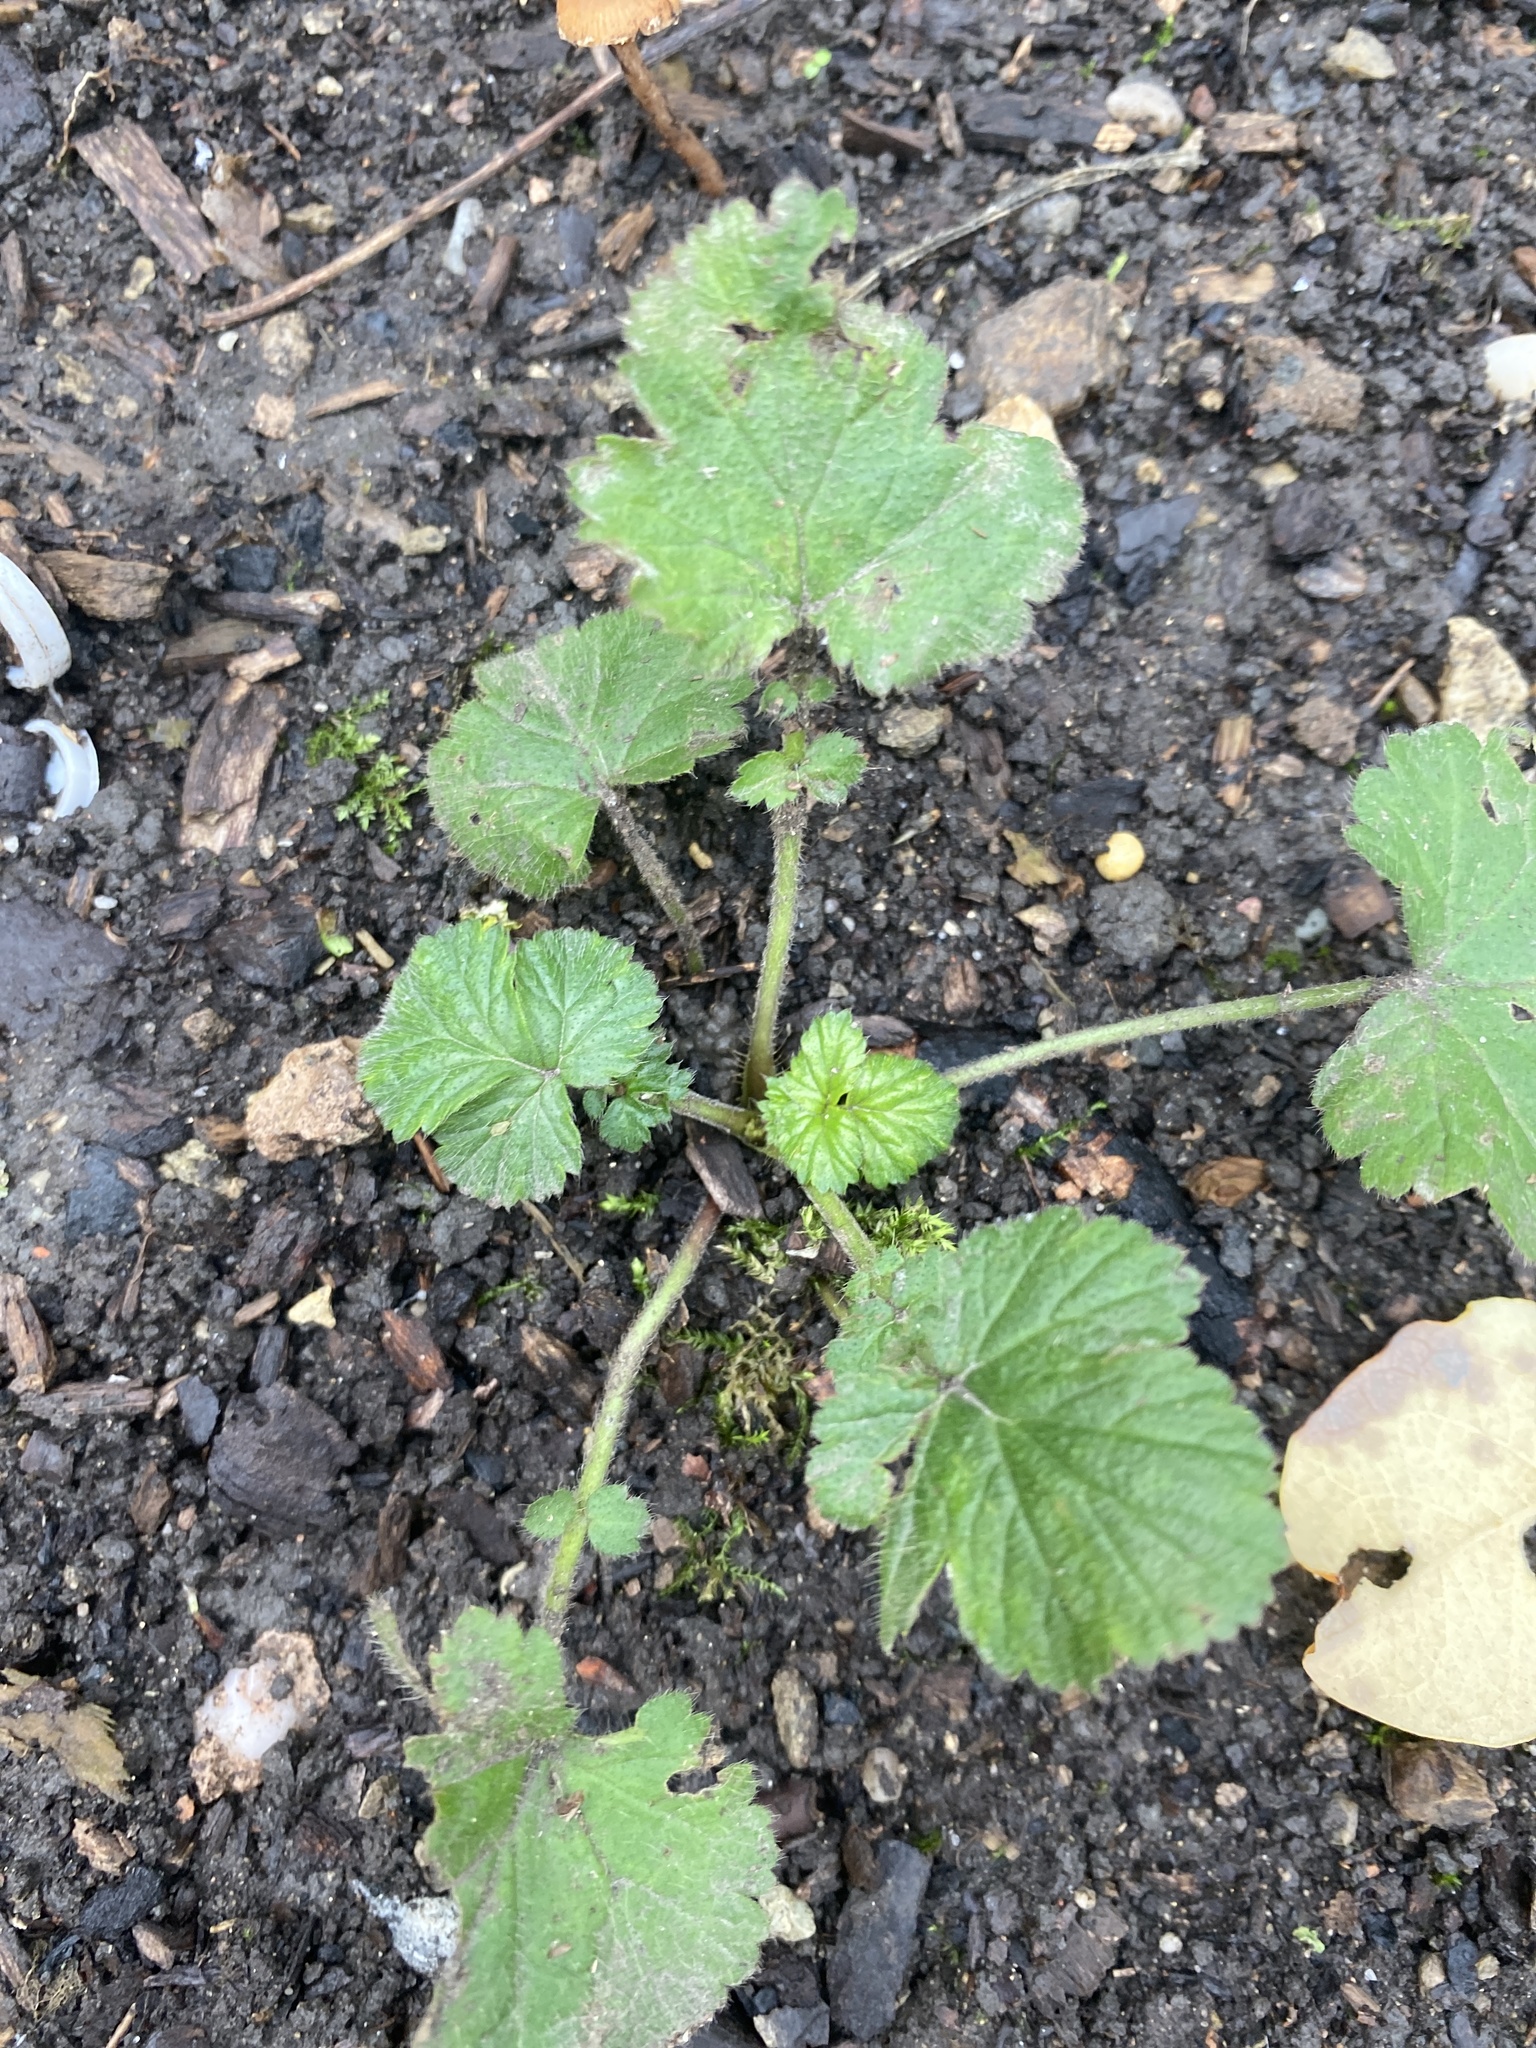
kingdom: Plantae
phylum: Tracheophyta
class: Magnoliopsida
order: Rosales
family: Rosaceae
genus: Geum
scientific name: Geum urbanum
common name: Wood avens
